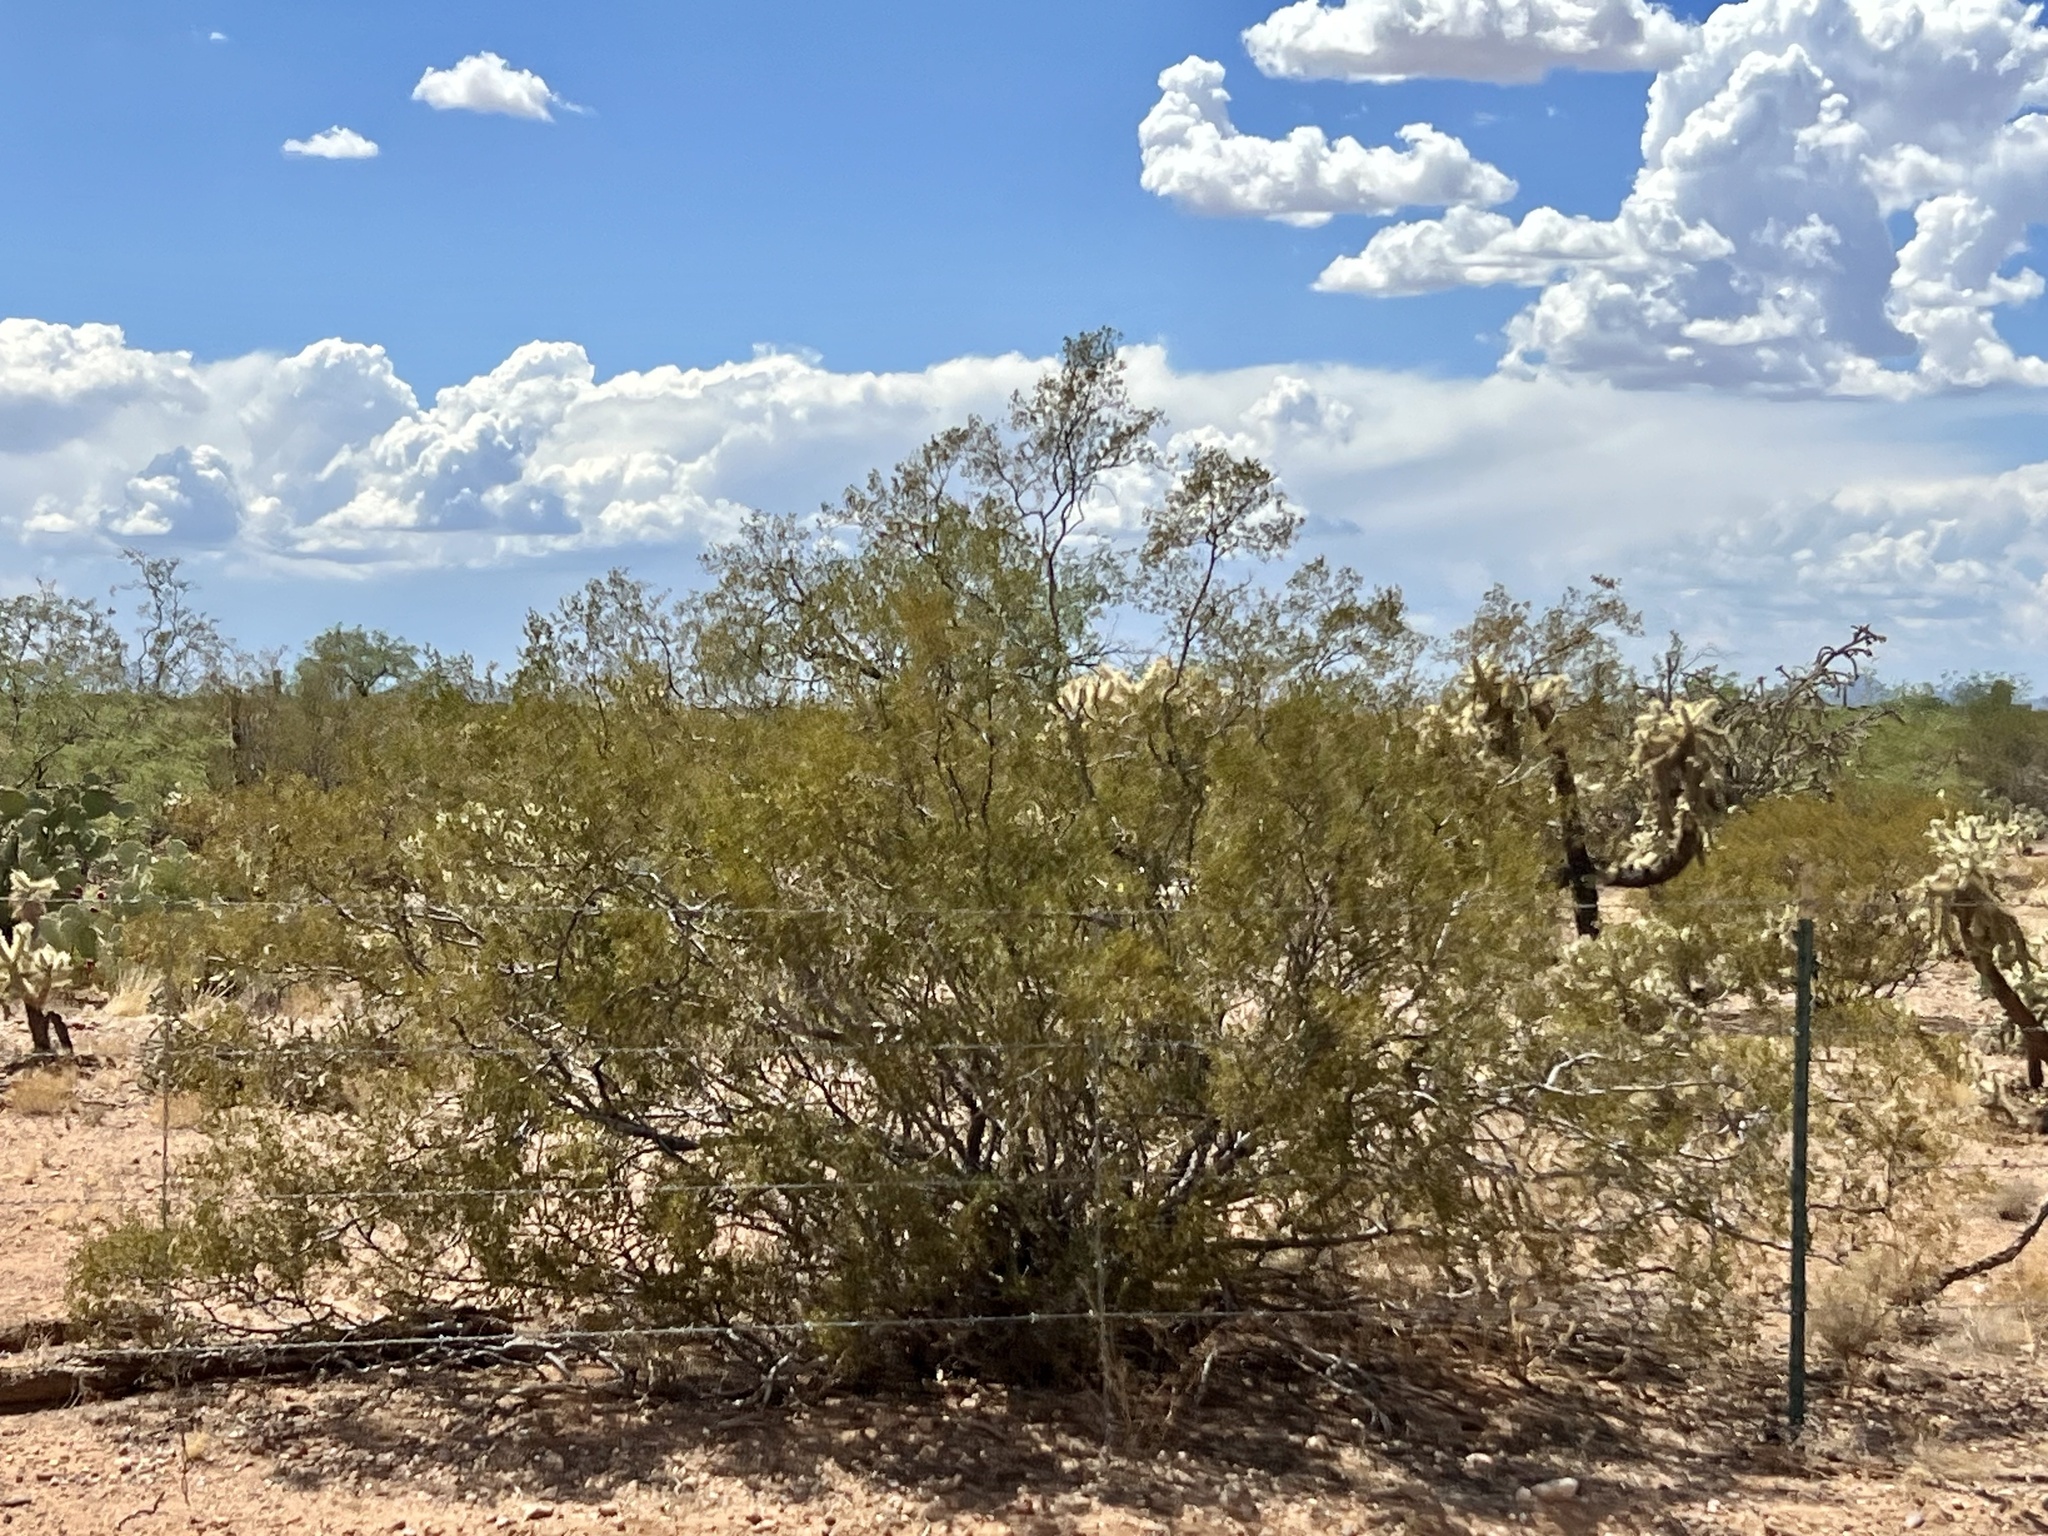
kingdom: Plantae
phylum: Tracheophyta
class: Magnoliopsida
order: Zygophyllales
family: Zygophyllaceae
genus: Larrea
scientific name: Larrea tridentata
